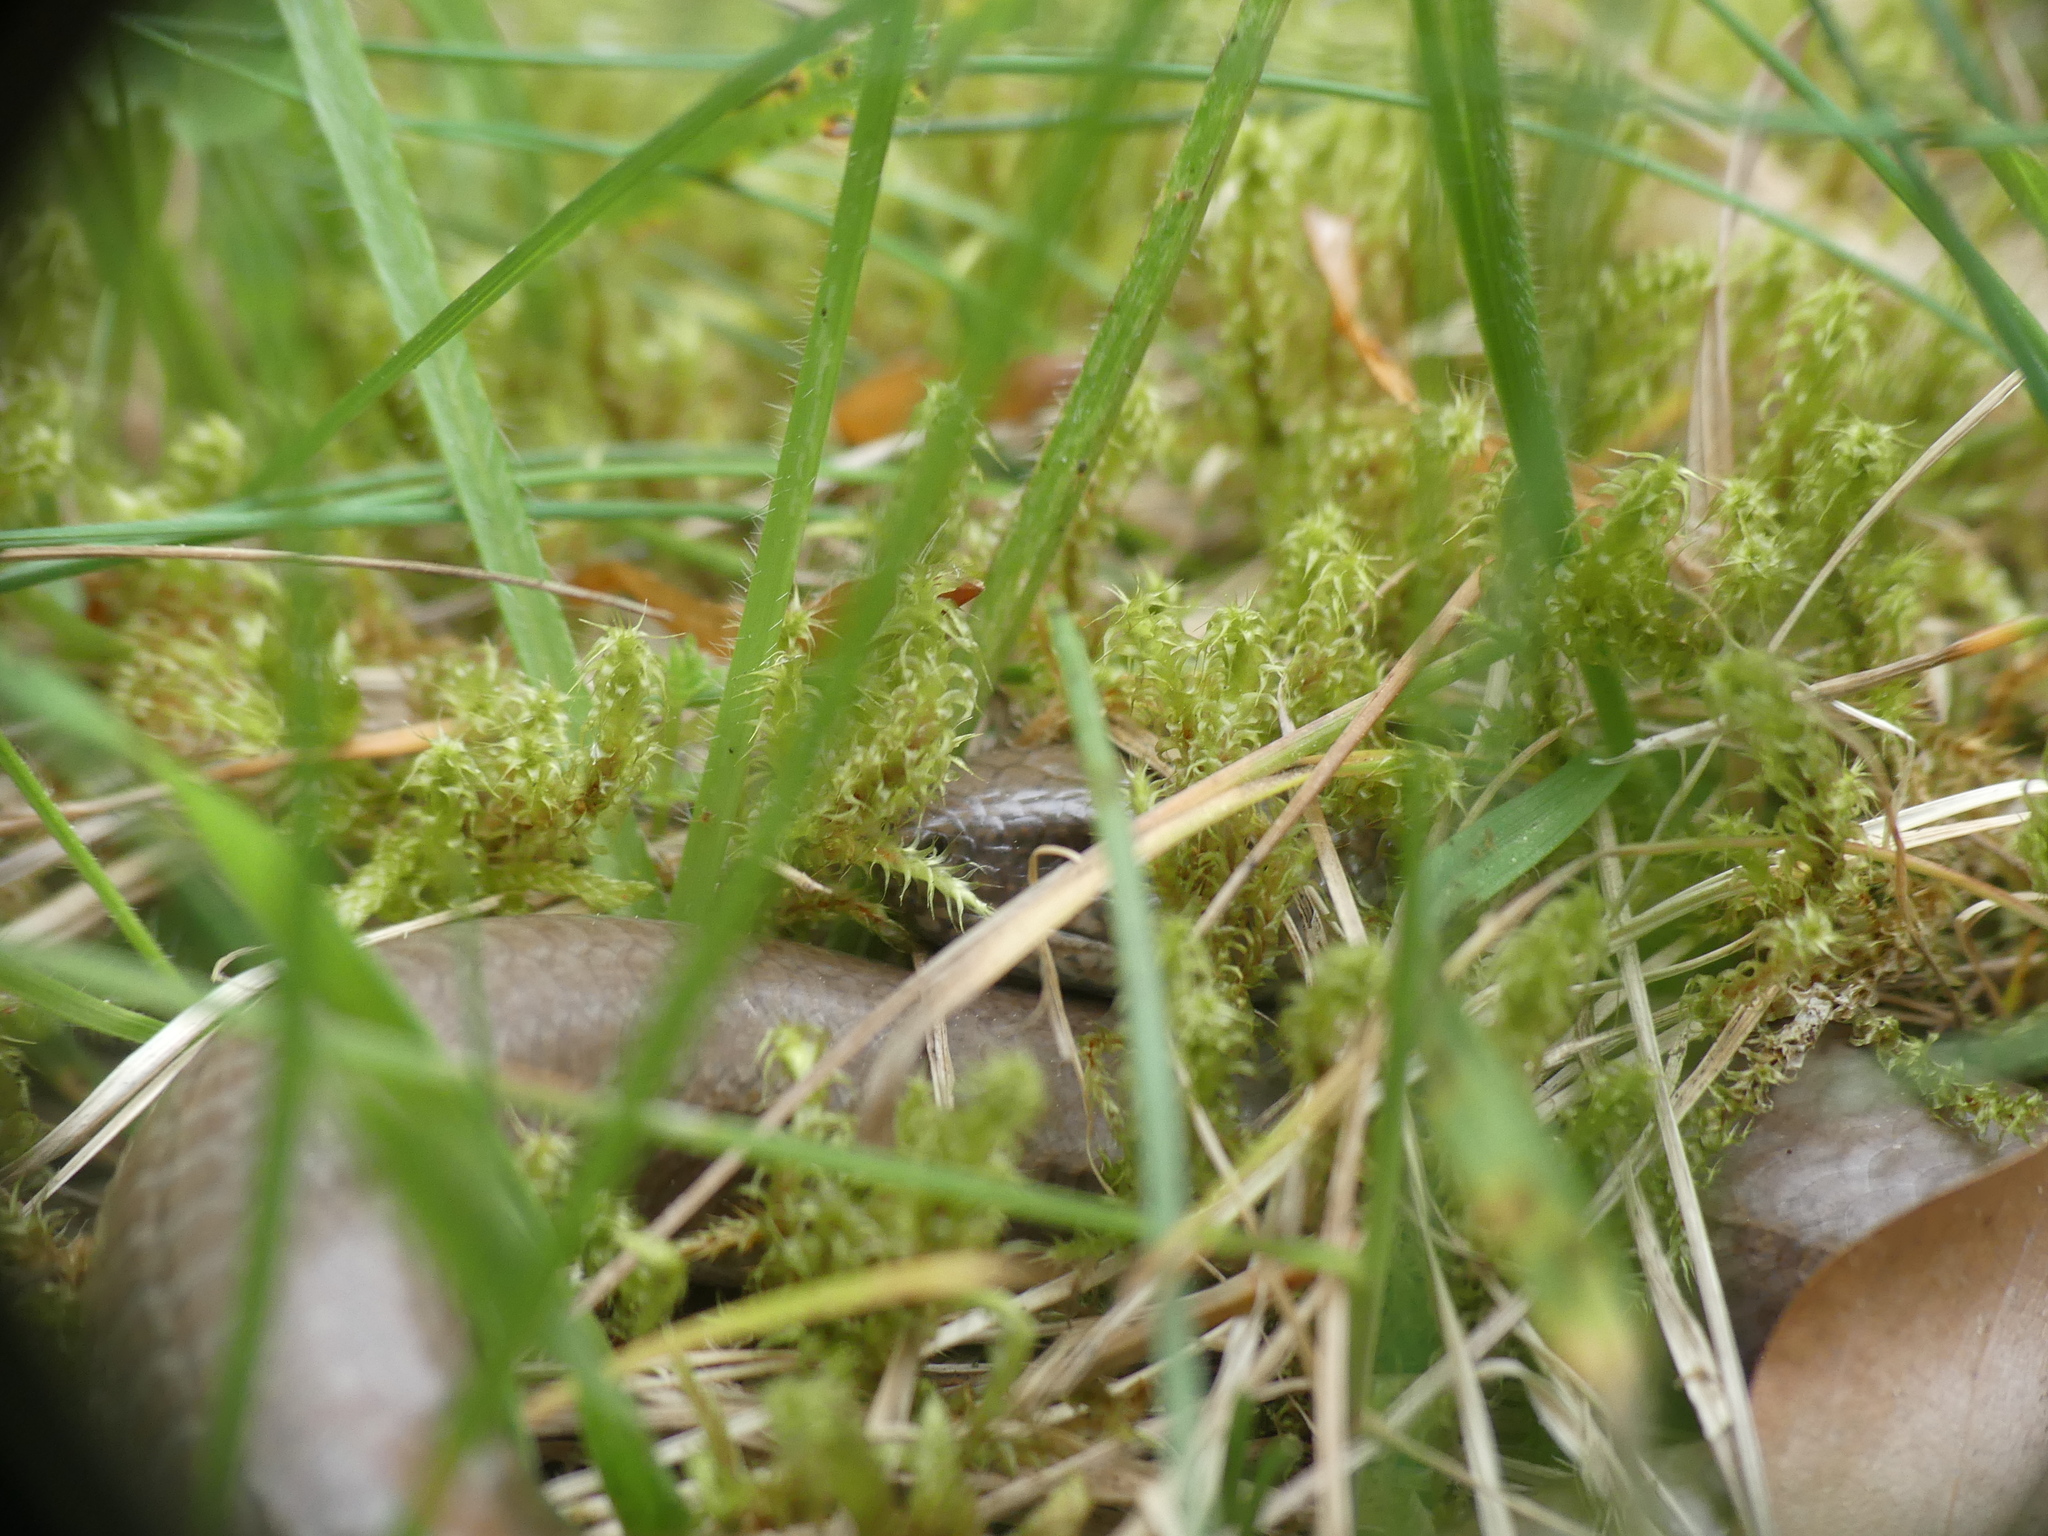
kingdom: Animalia
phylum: Chordata
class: Squamata
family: Anguidae
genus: Anguis
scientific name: Anguis fragilis
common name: Slow worm
